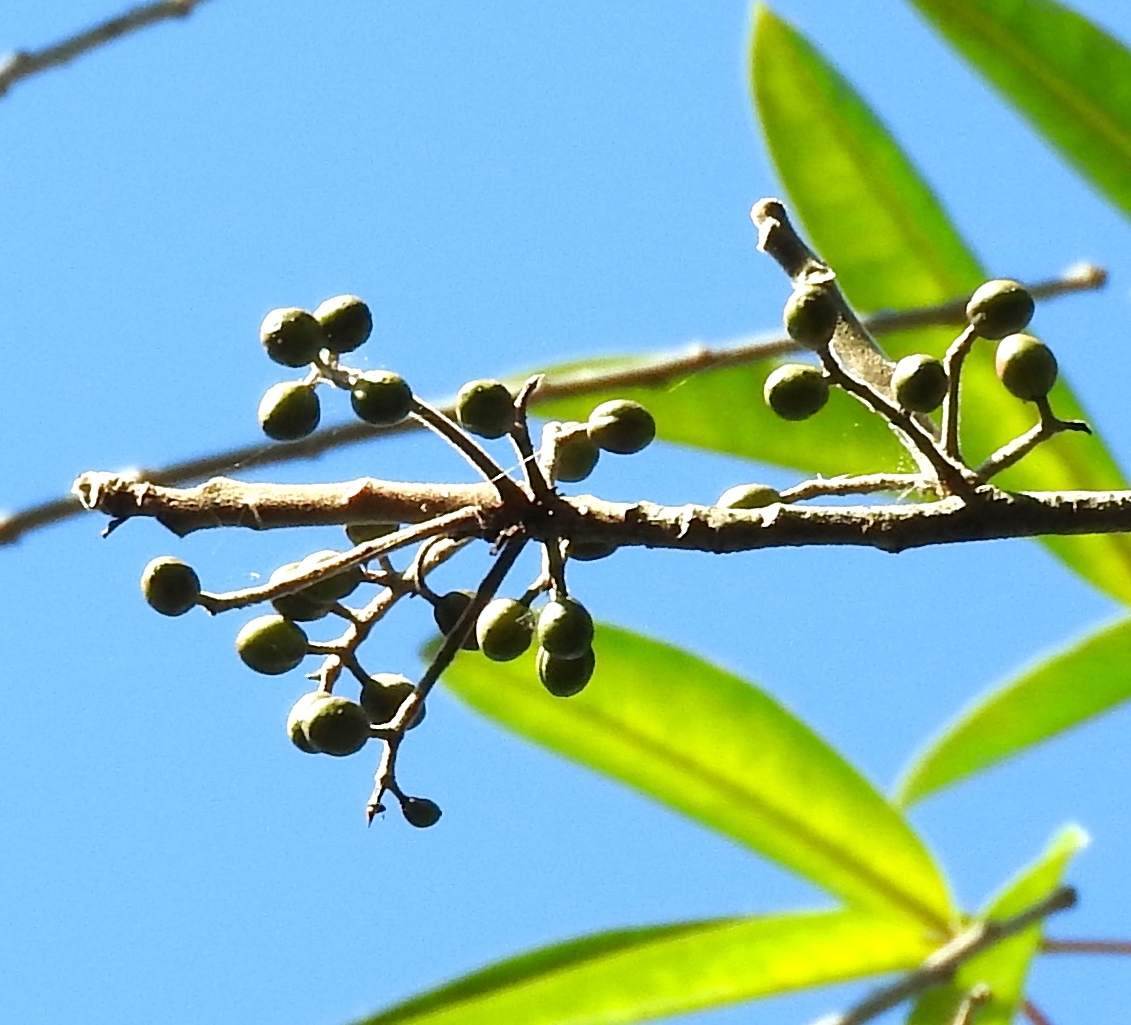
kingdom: Plantae
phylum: Tracheophyta
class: Magnoliopsida
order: Sapindales
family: Burseraceae
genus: Bursera
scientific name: Bursera simaruba
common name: Turpentine tree
